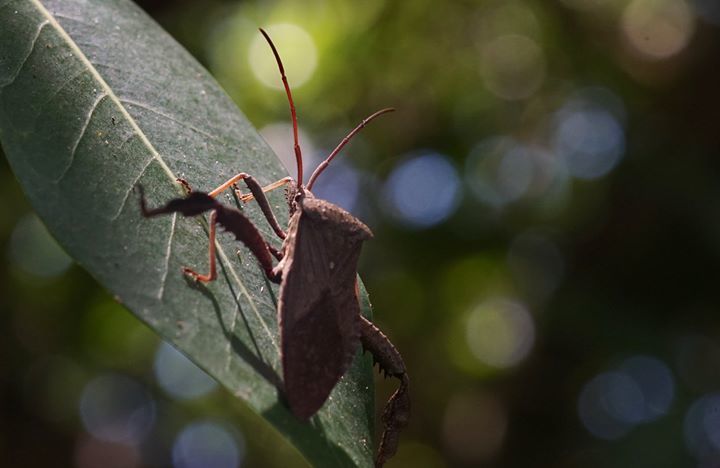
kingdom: Animalia
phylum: Arthropoda
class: Insecta
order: Hemiptera
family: Coreidae
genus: Acanthocephala
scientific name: Acanthocephala femorata
